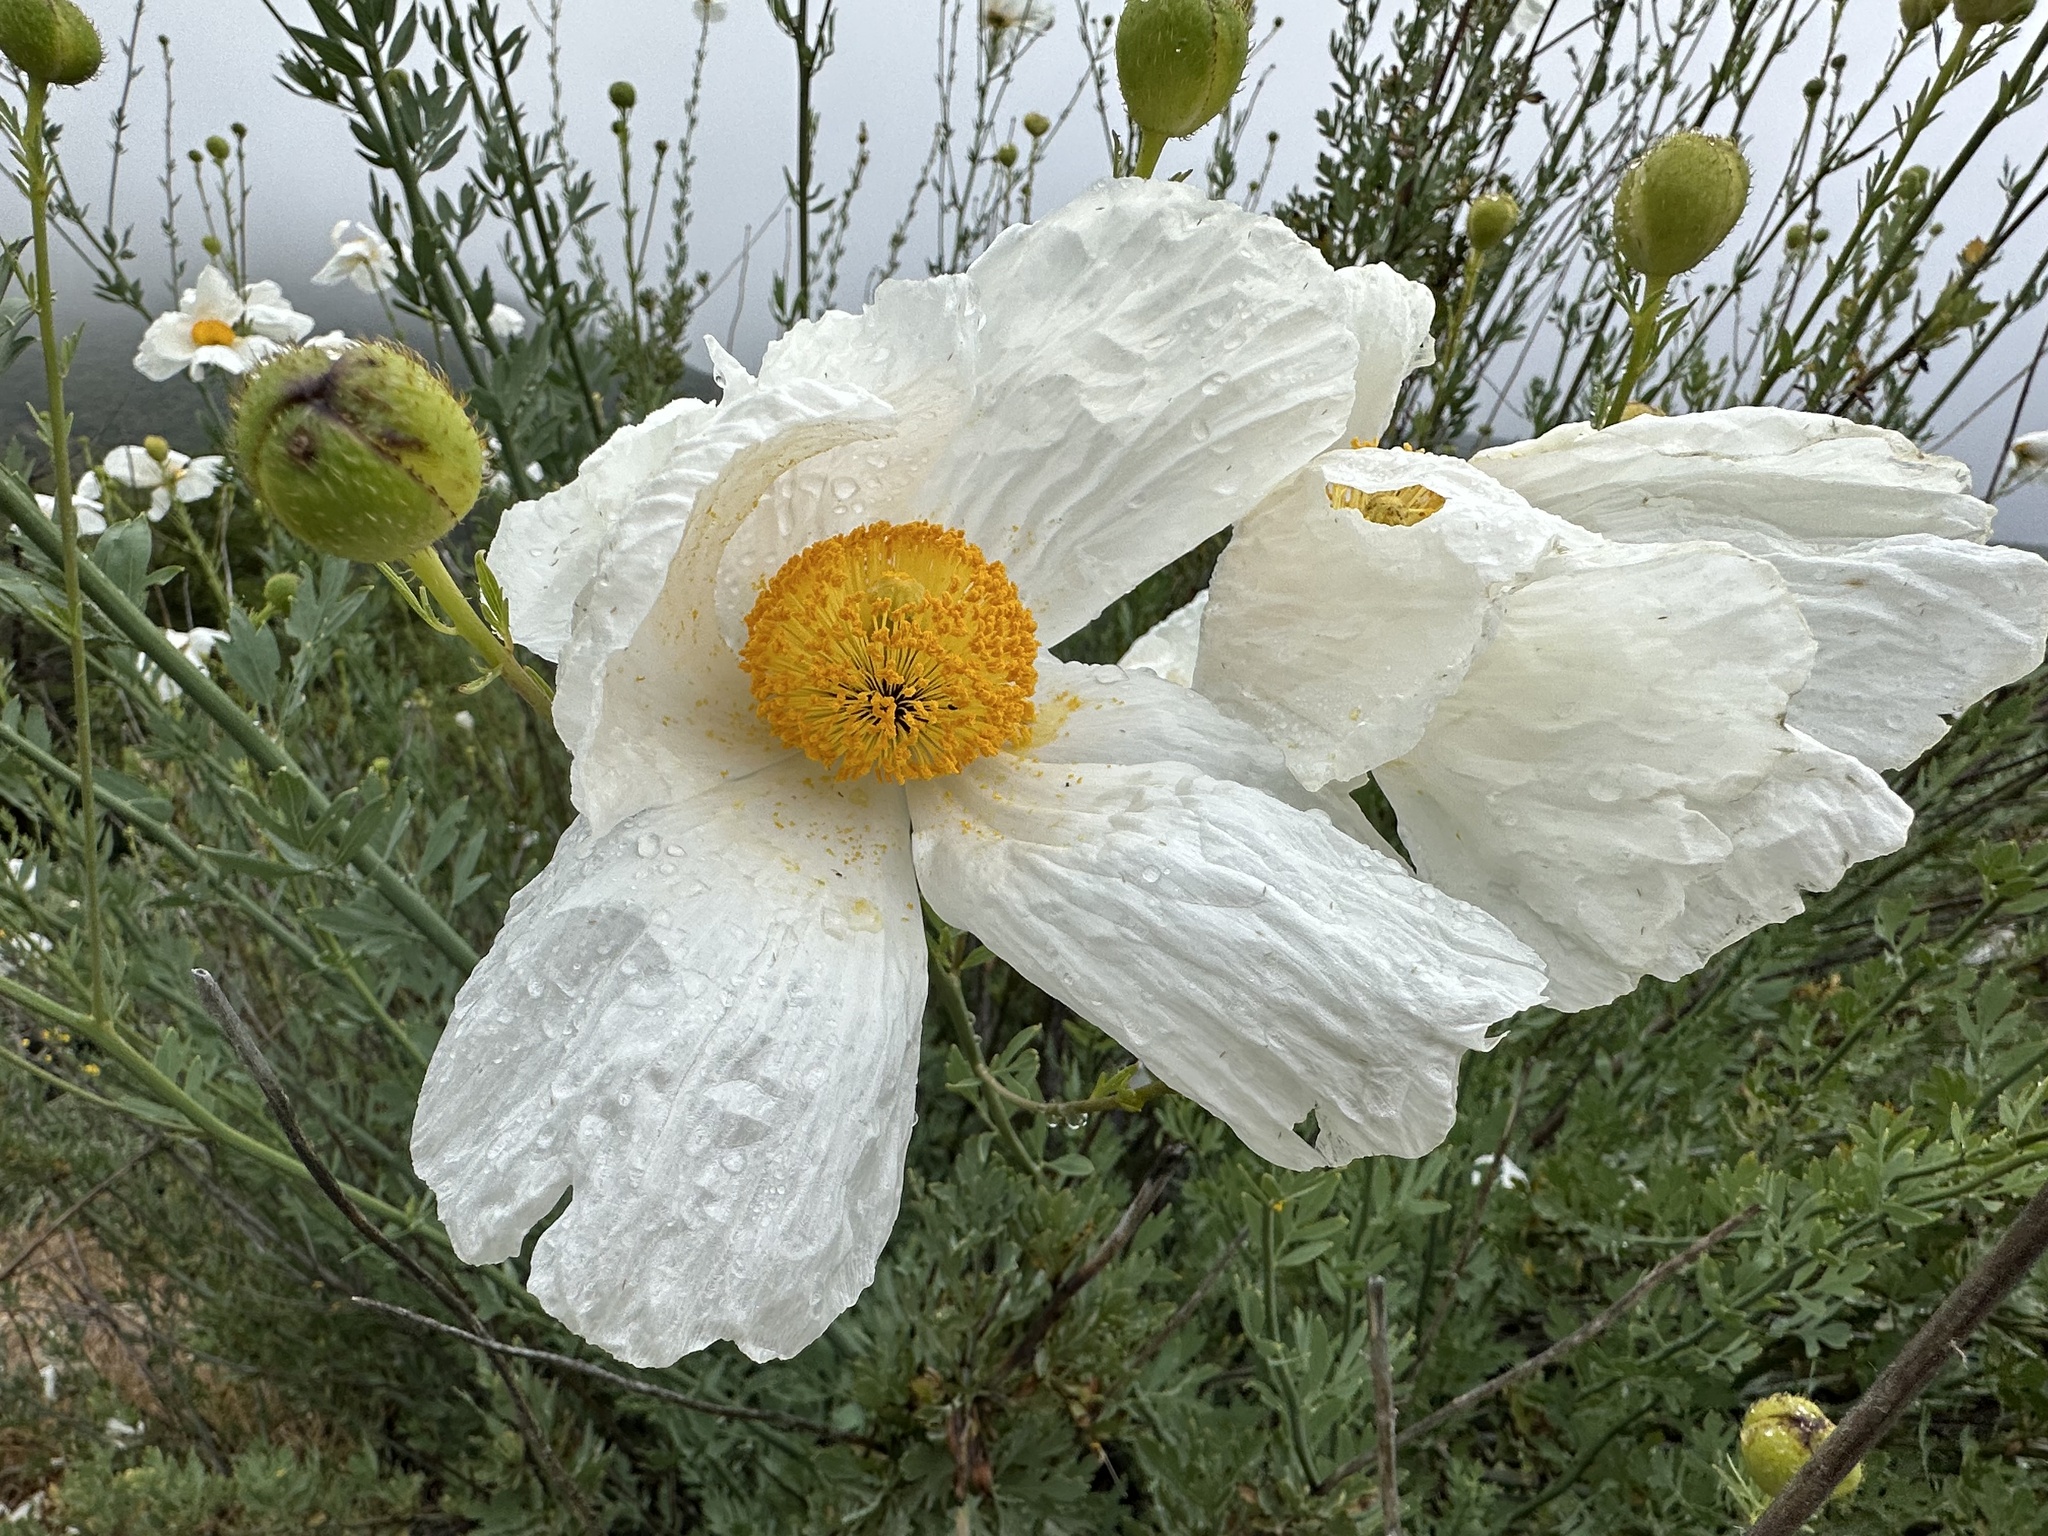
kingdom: Plantae
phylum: Tracheophyta
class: Magnoliopsida
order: Ranunculales
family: Papaveraceae
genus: Romneya
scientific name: Romneya trichocalyx
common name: Hairy matilija-poppy
